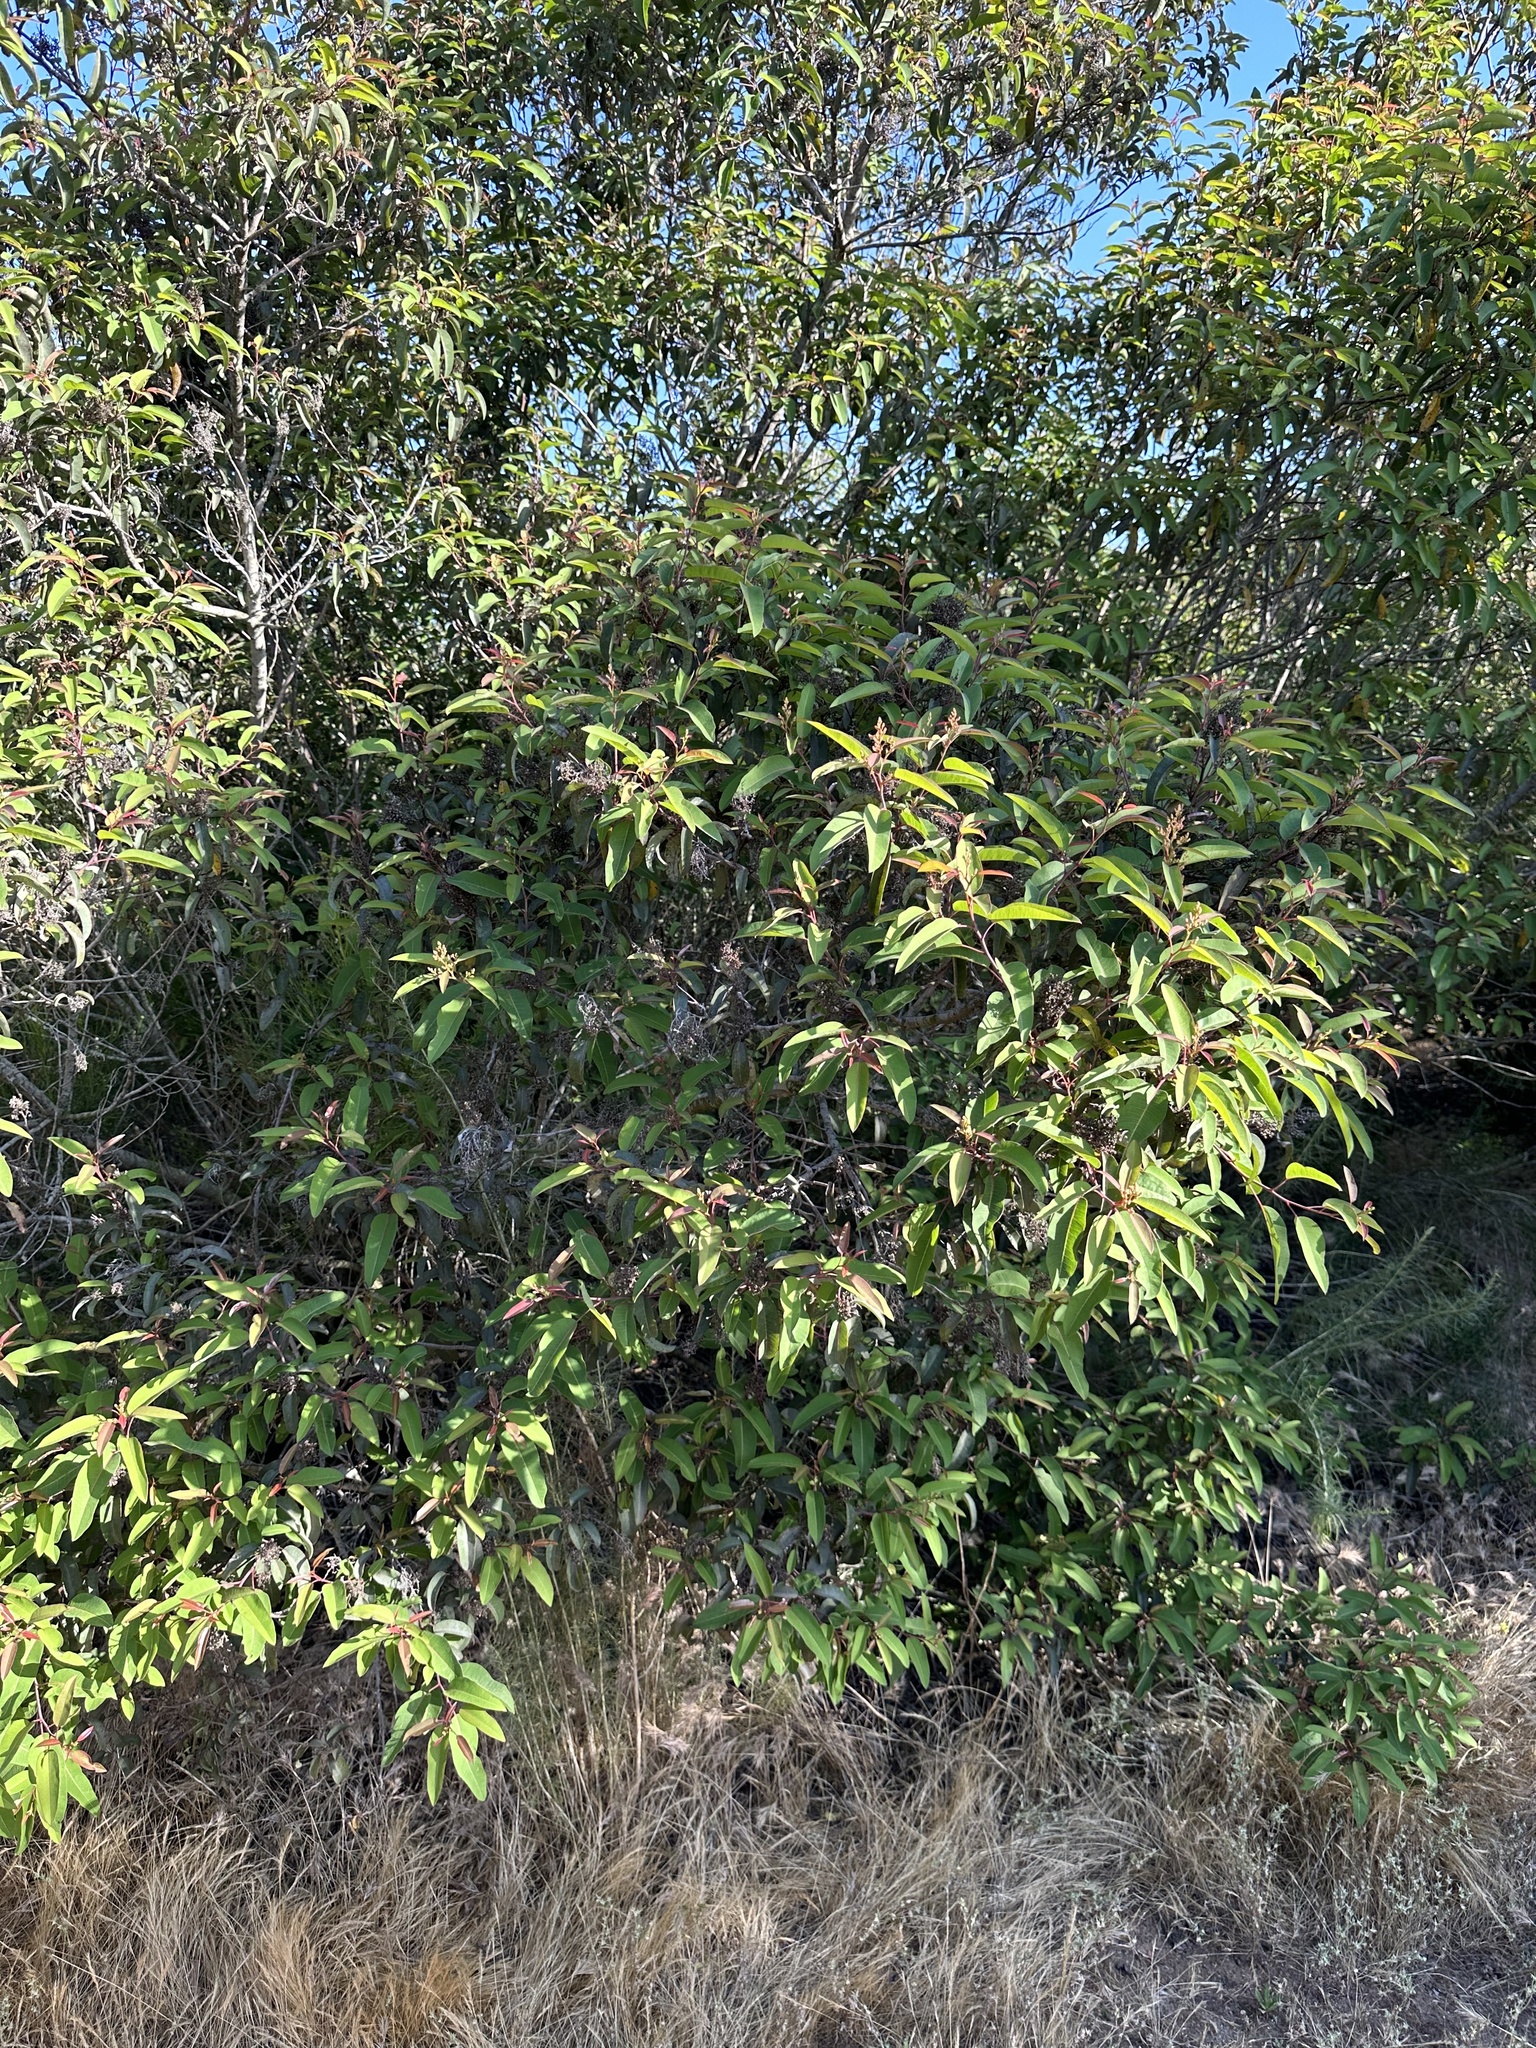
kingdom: Plantae
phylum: Tracheophyta
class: Magnoliopsida
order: Sapindales
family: Anacardiaceae
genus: Malosma
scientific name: Malosma laurina
